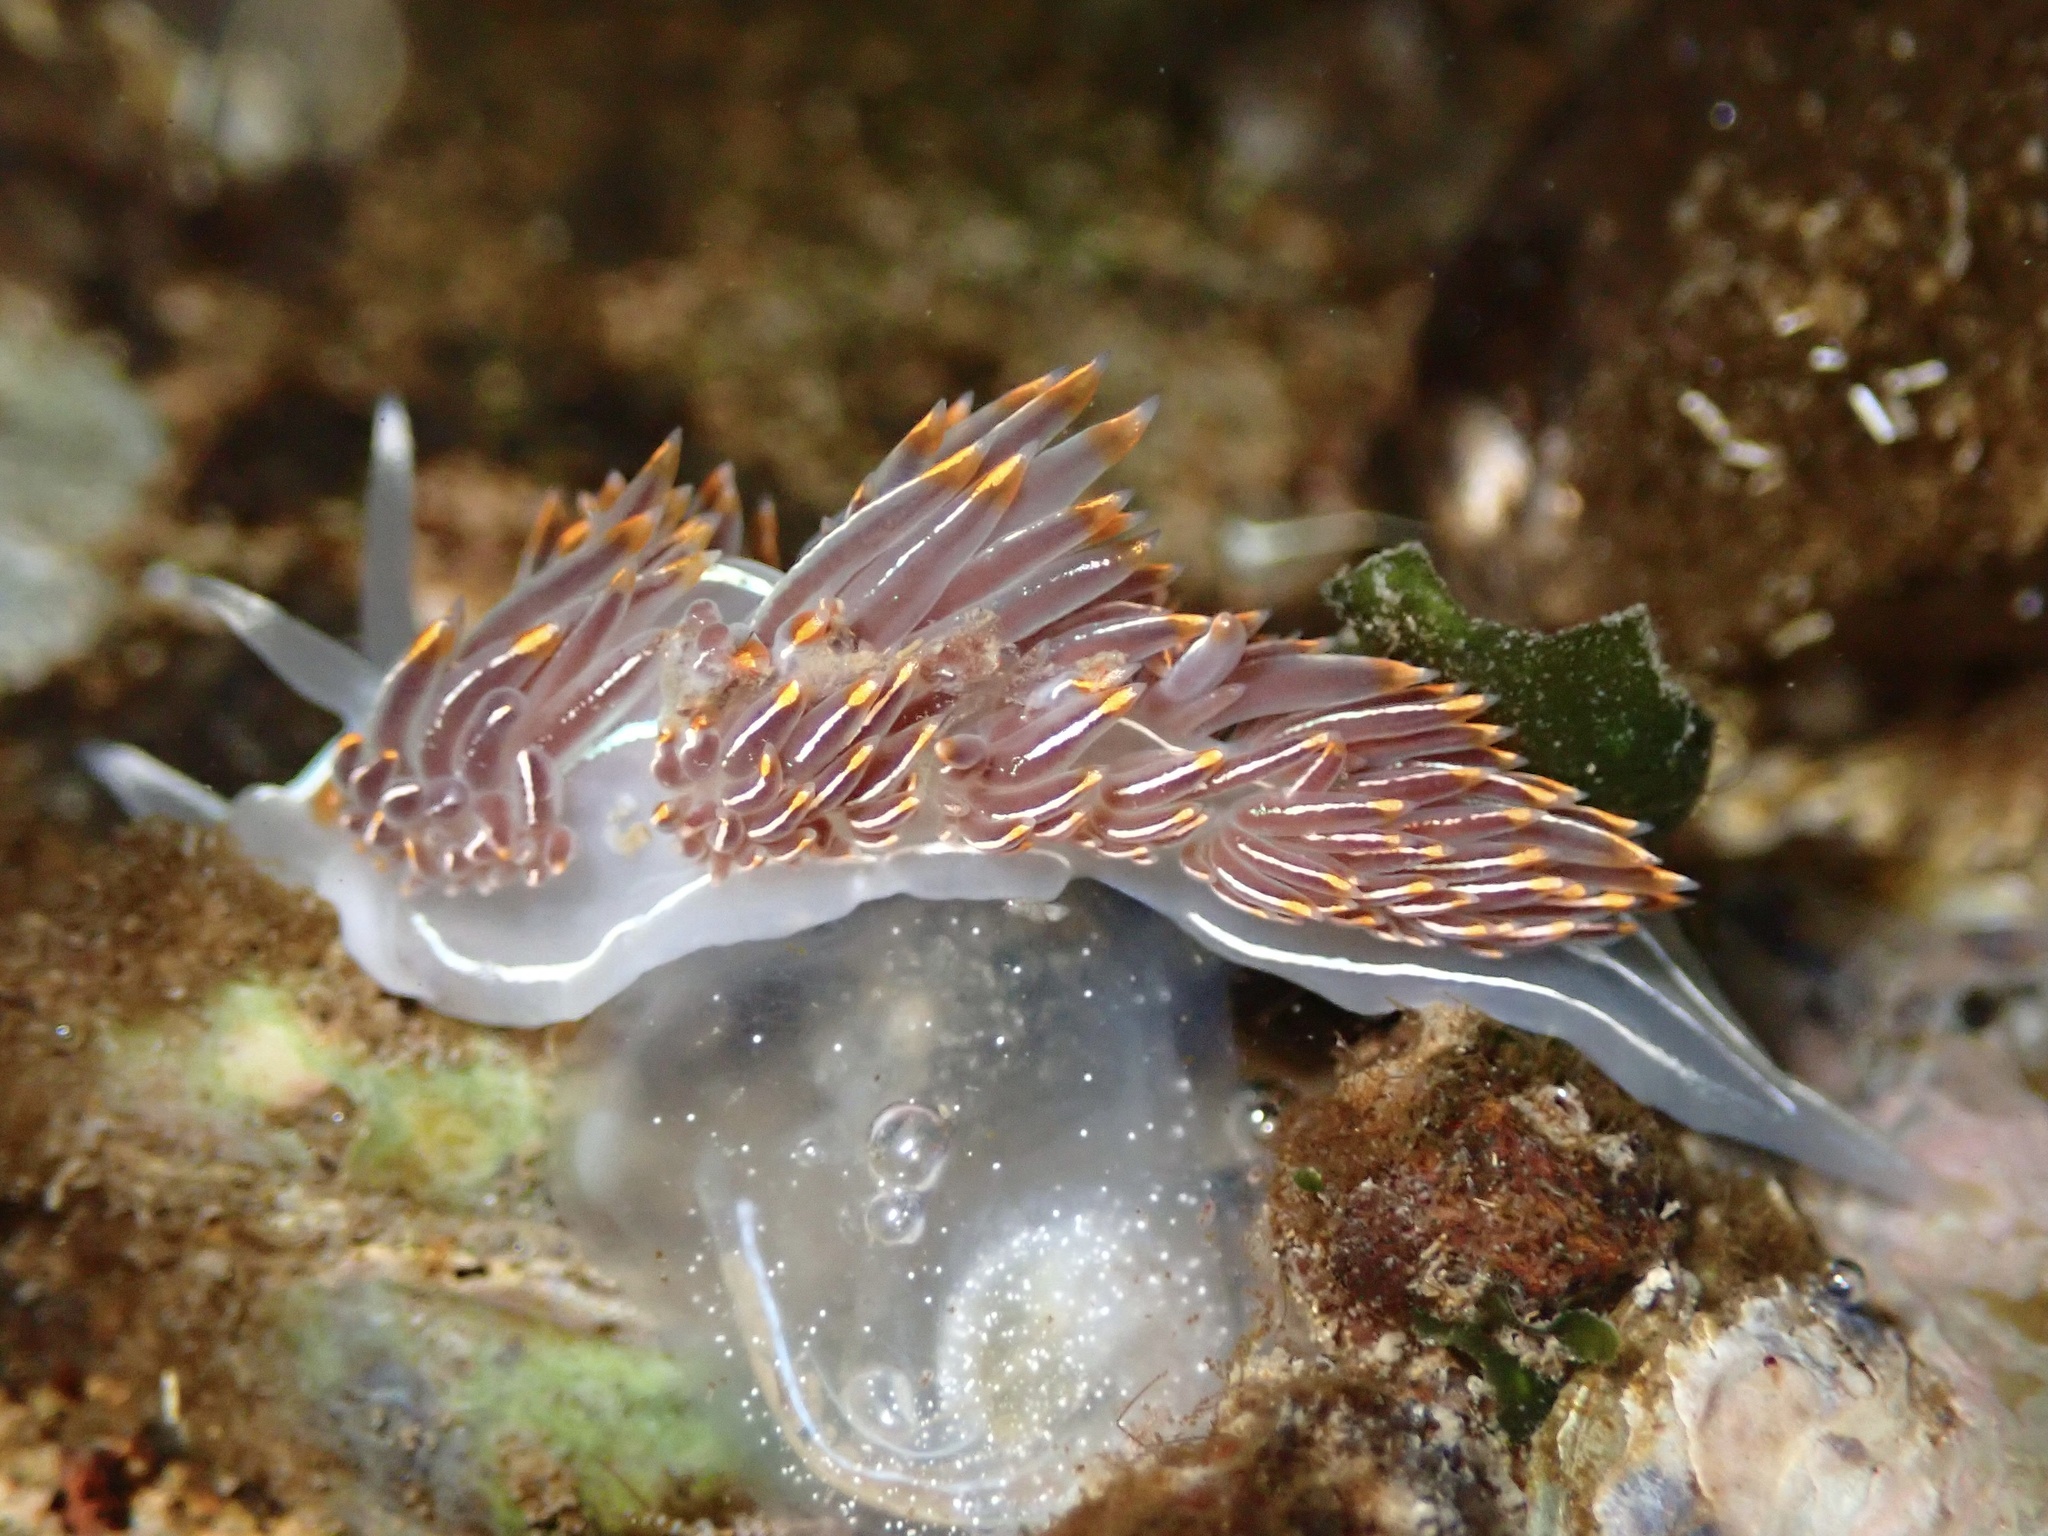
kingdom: Animalia
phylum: Mollusca
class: Gastropoda
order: Nudibranchia
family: Myrrhinidae
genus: Hermissenda
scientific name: Hermissenda crassicornis
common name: Hermissenda
